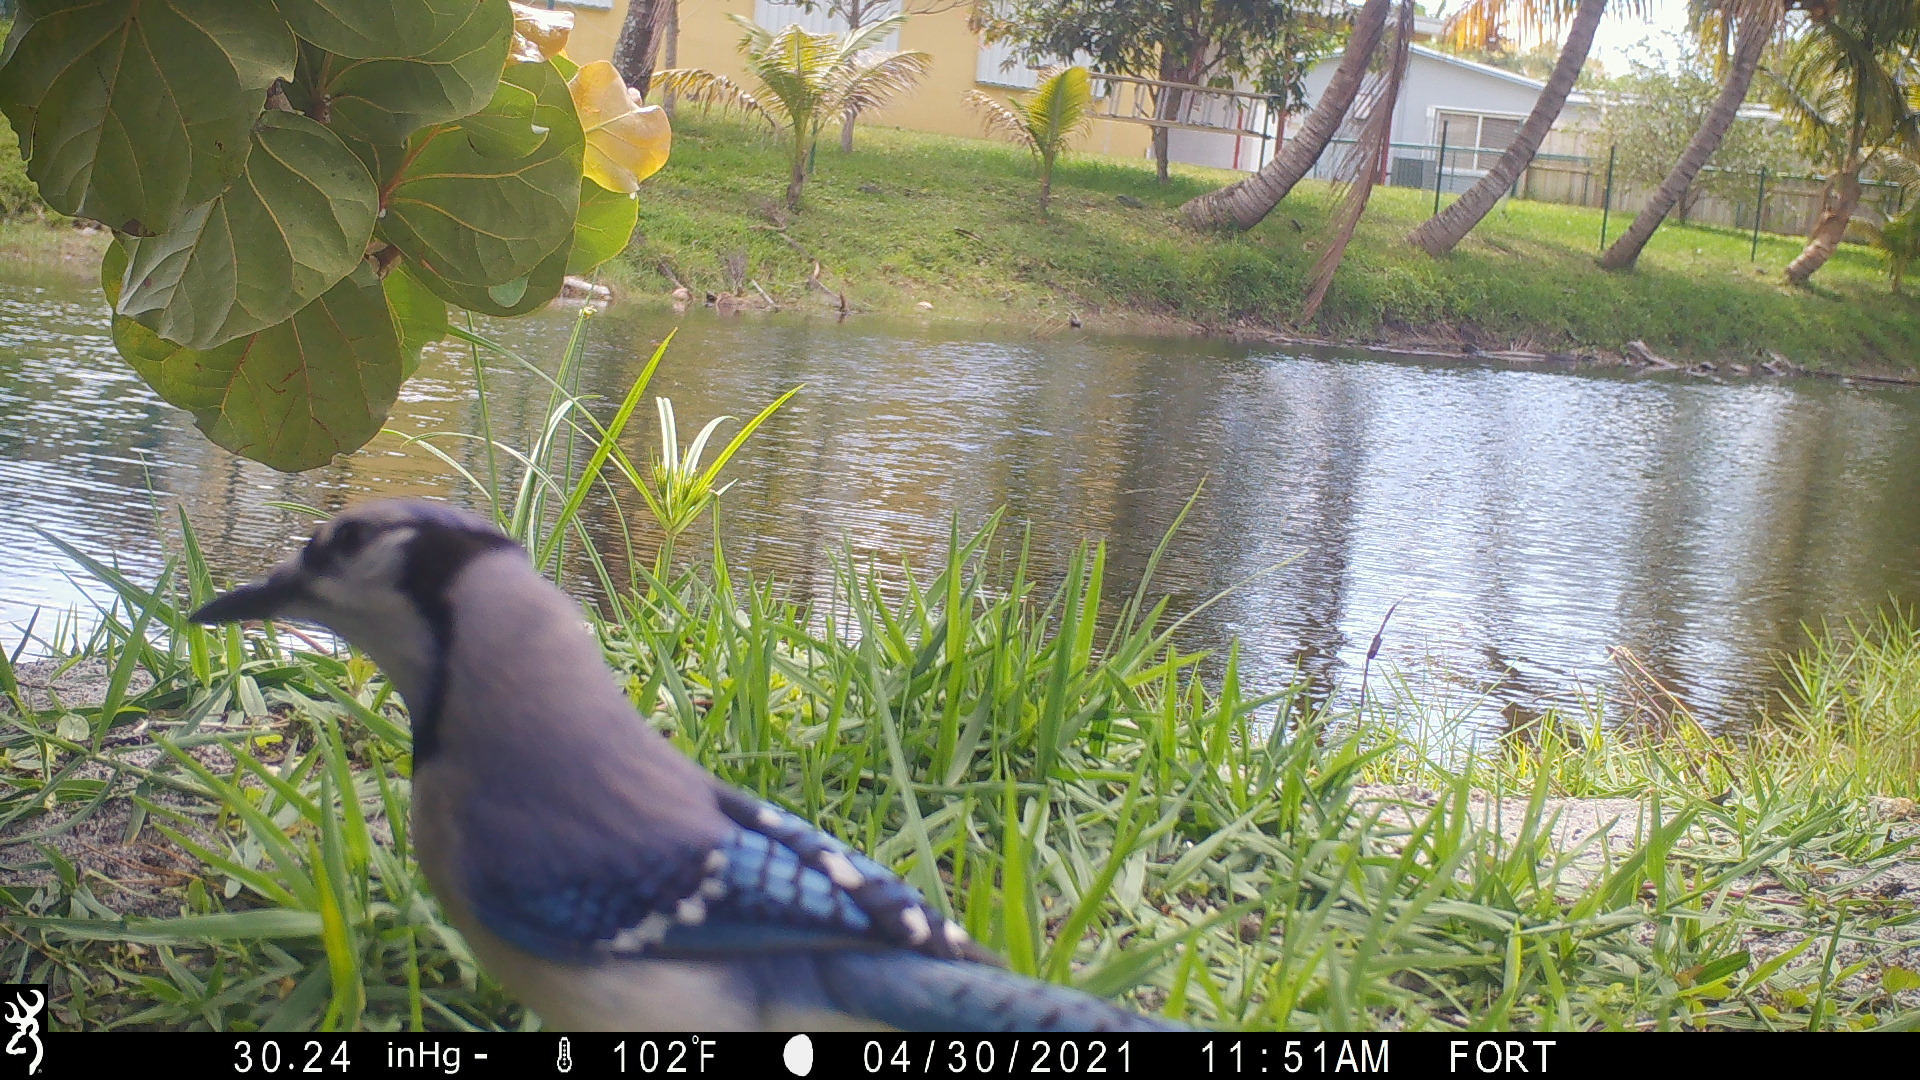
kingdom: Animalia
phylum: Chordata
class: Aves
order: Passeriformes
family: Corvidae
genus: Cyanocitta
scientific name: Cyanocitta cristata
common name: Blue jay
